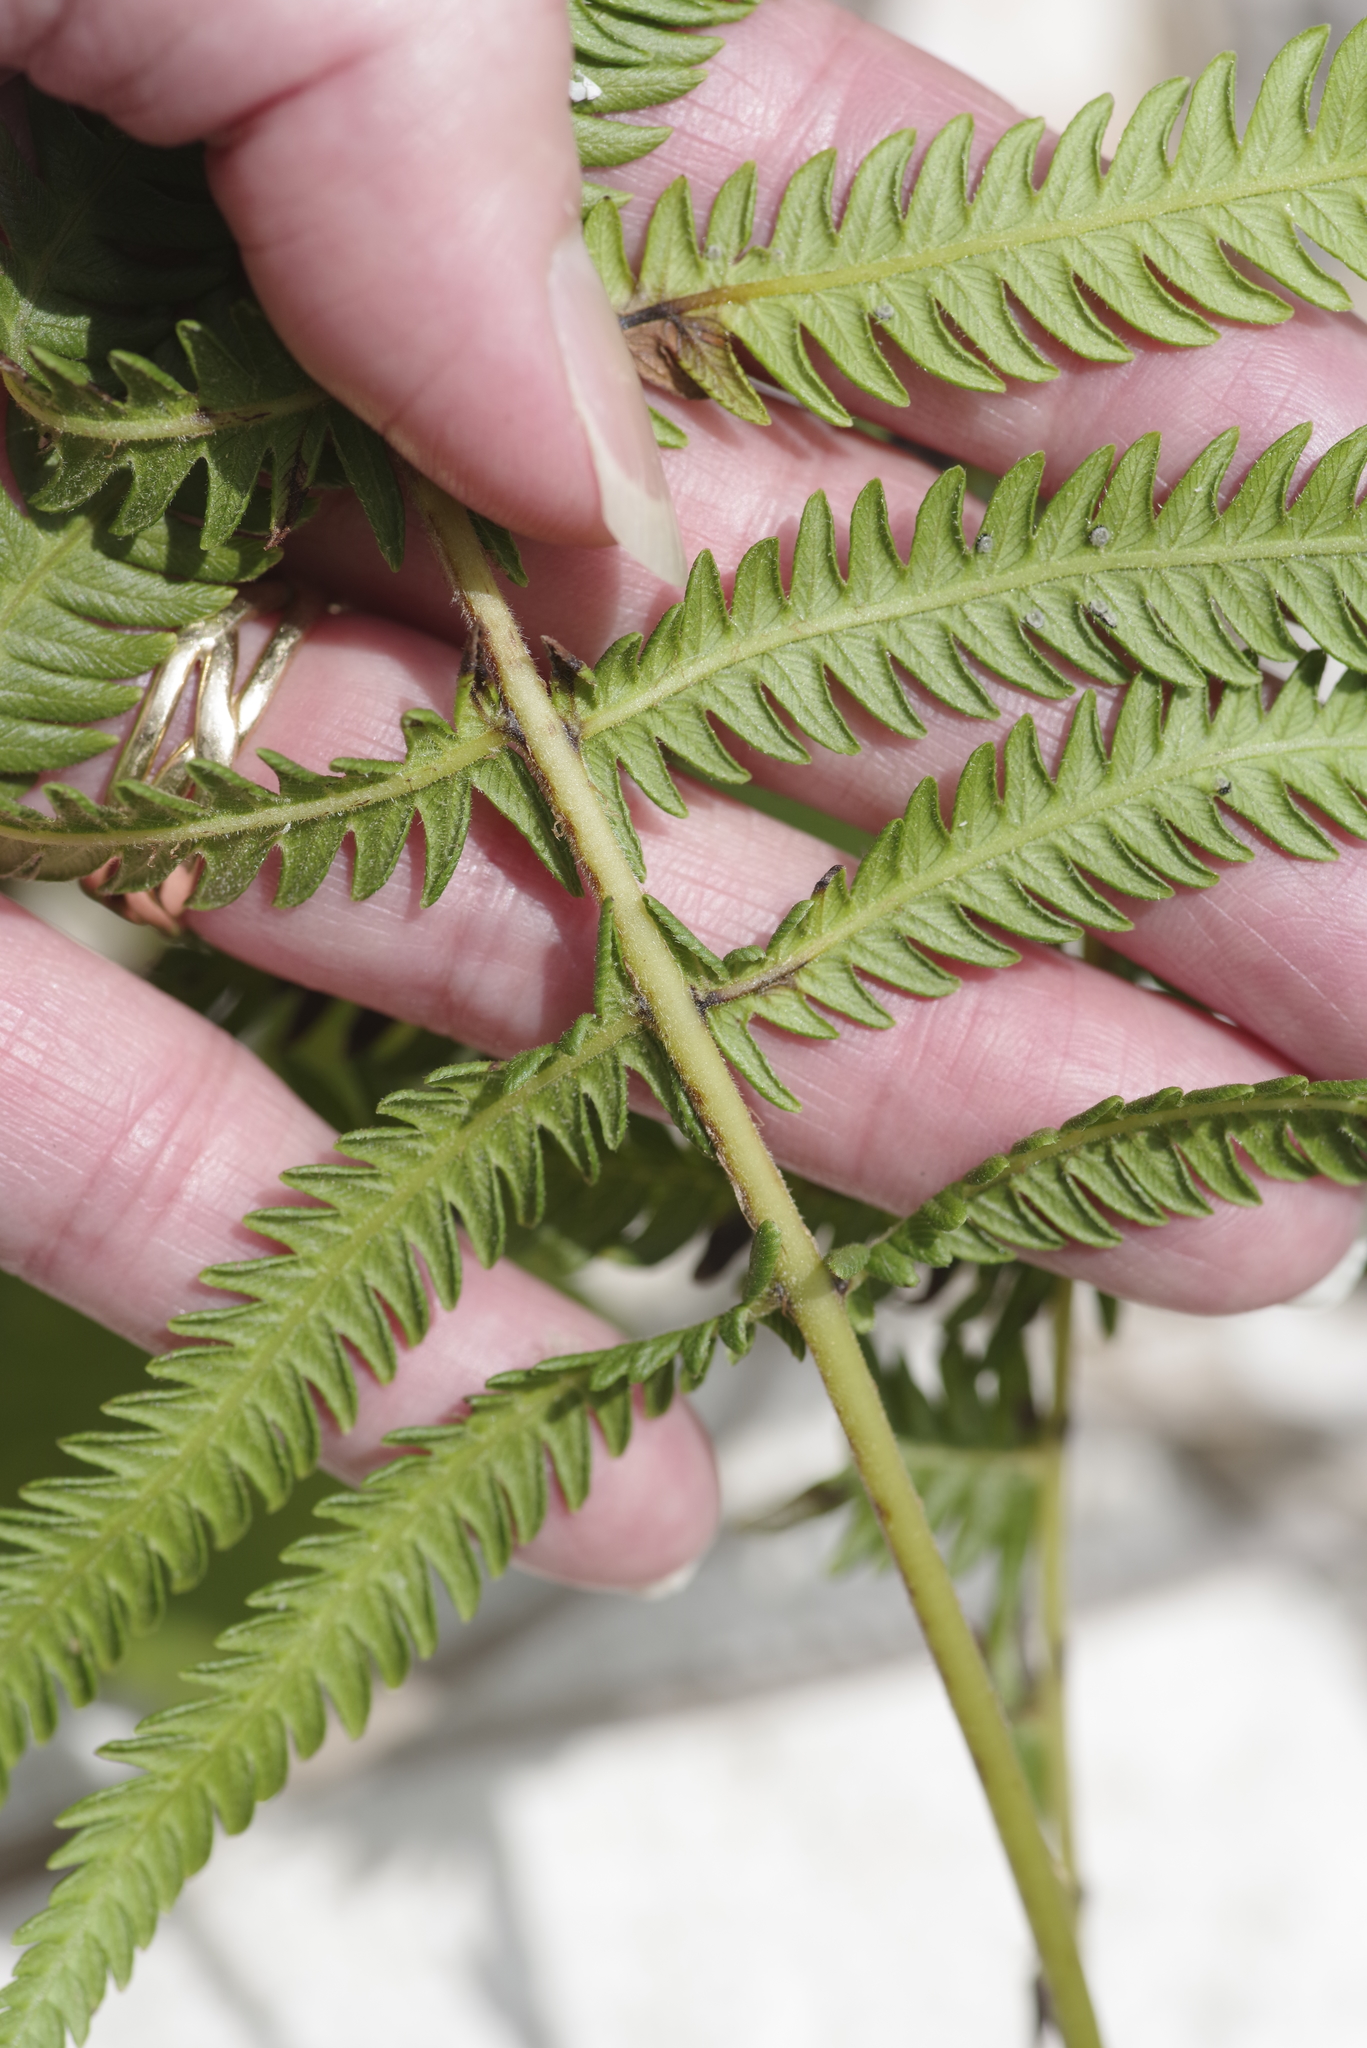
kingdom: Plantae
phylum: Tracheophyta
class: Polypodiopsida
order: Polypodiales
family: Thelypteridaceae
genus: Pelazoneuron
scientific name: Pelazoneuron ovatum
